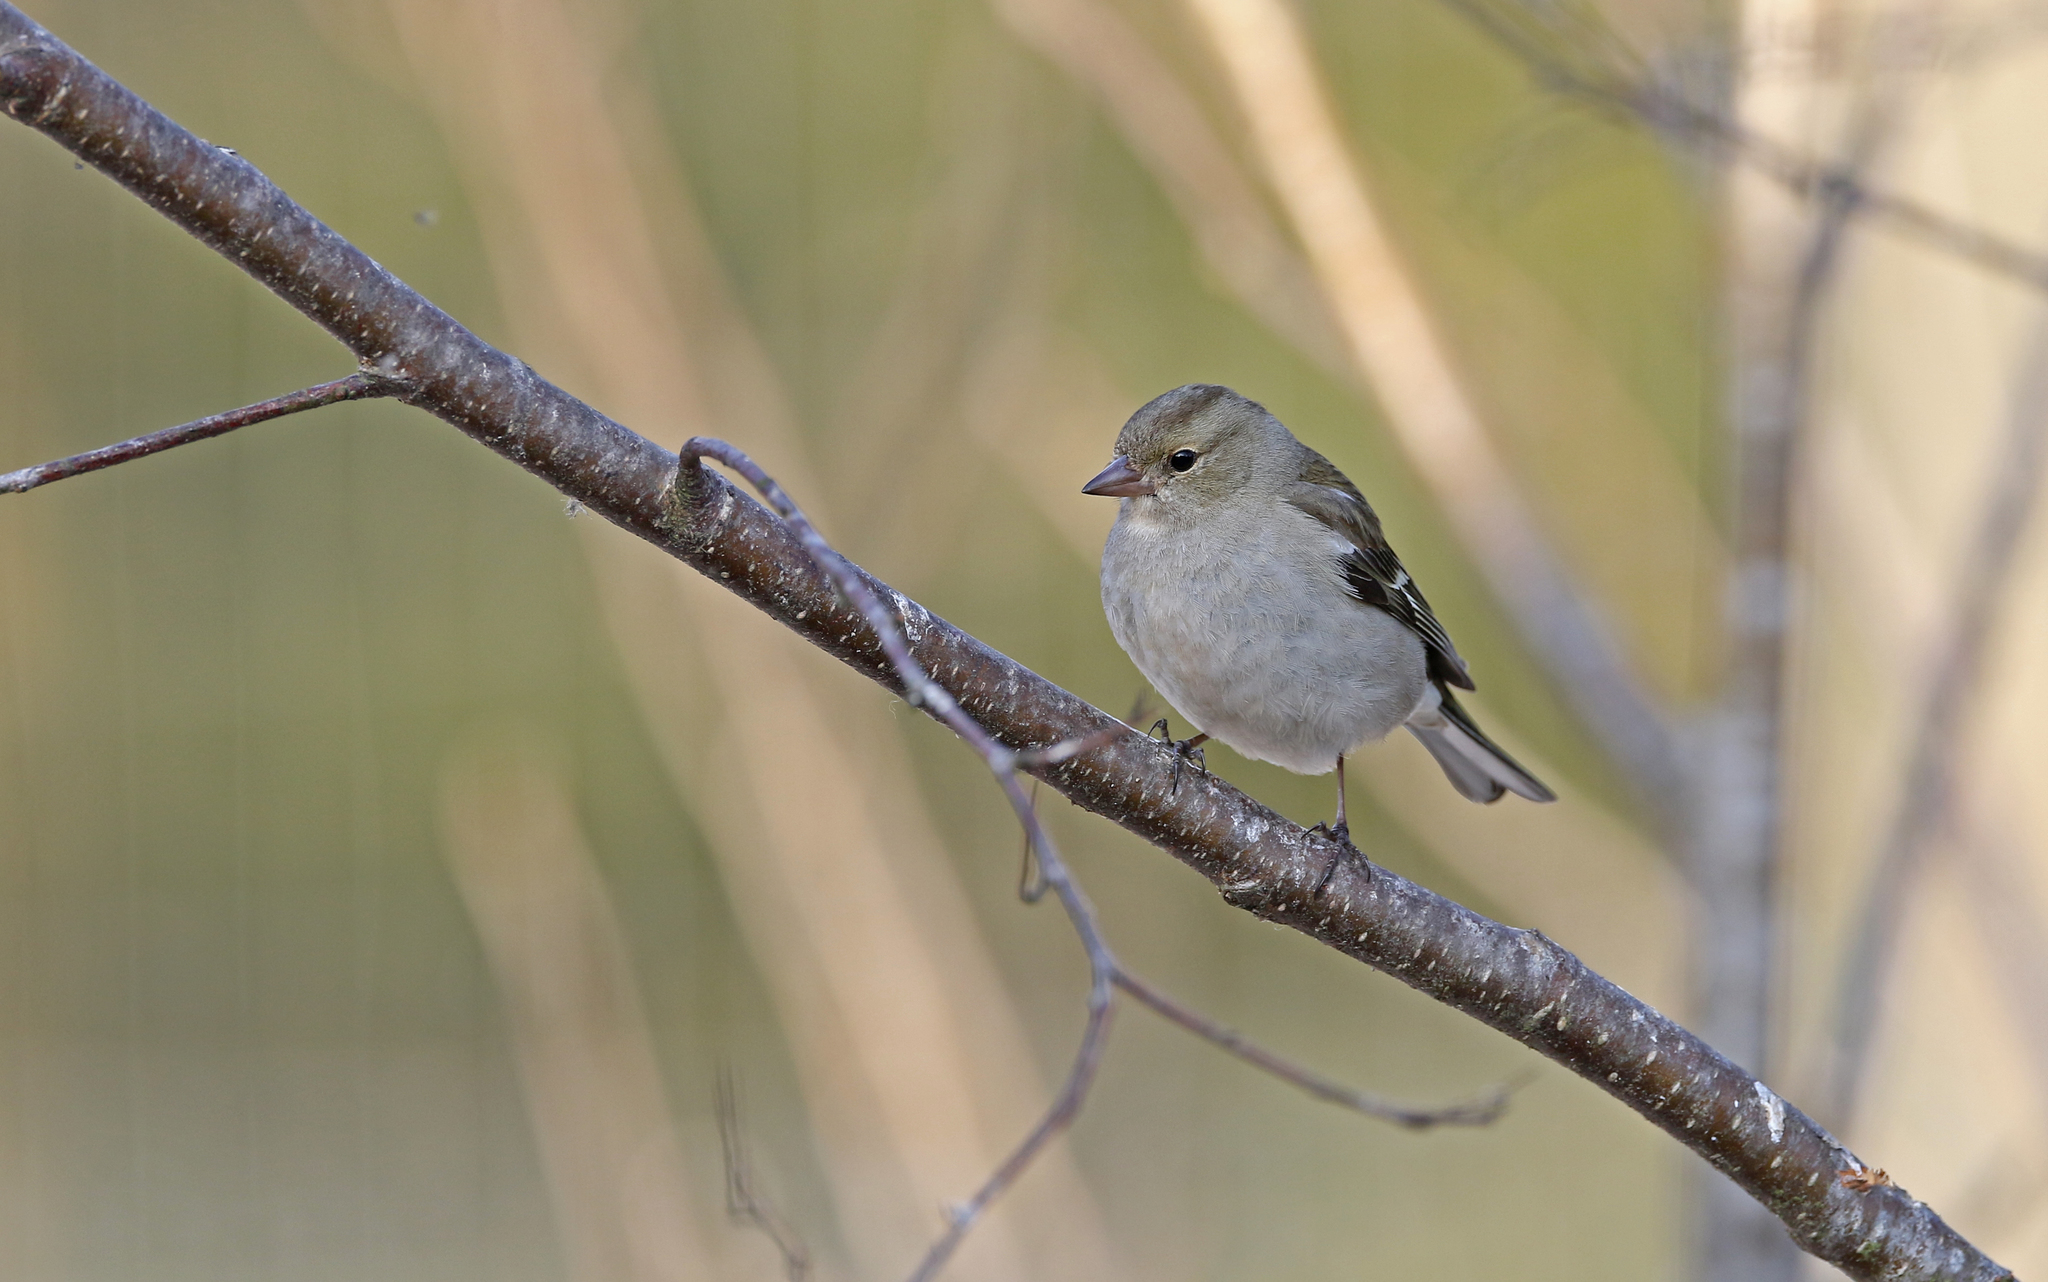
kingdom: Animalia
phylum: Chordata
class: Aves
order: Passeriformes
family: Fringillidae
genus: Fringilla
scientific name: Fringilla coelebs
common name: Common chaffinch
